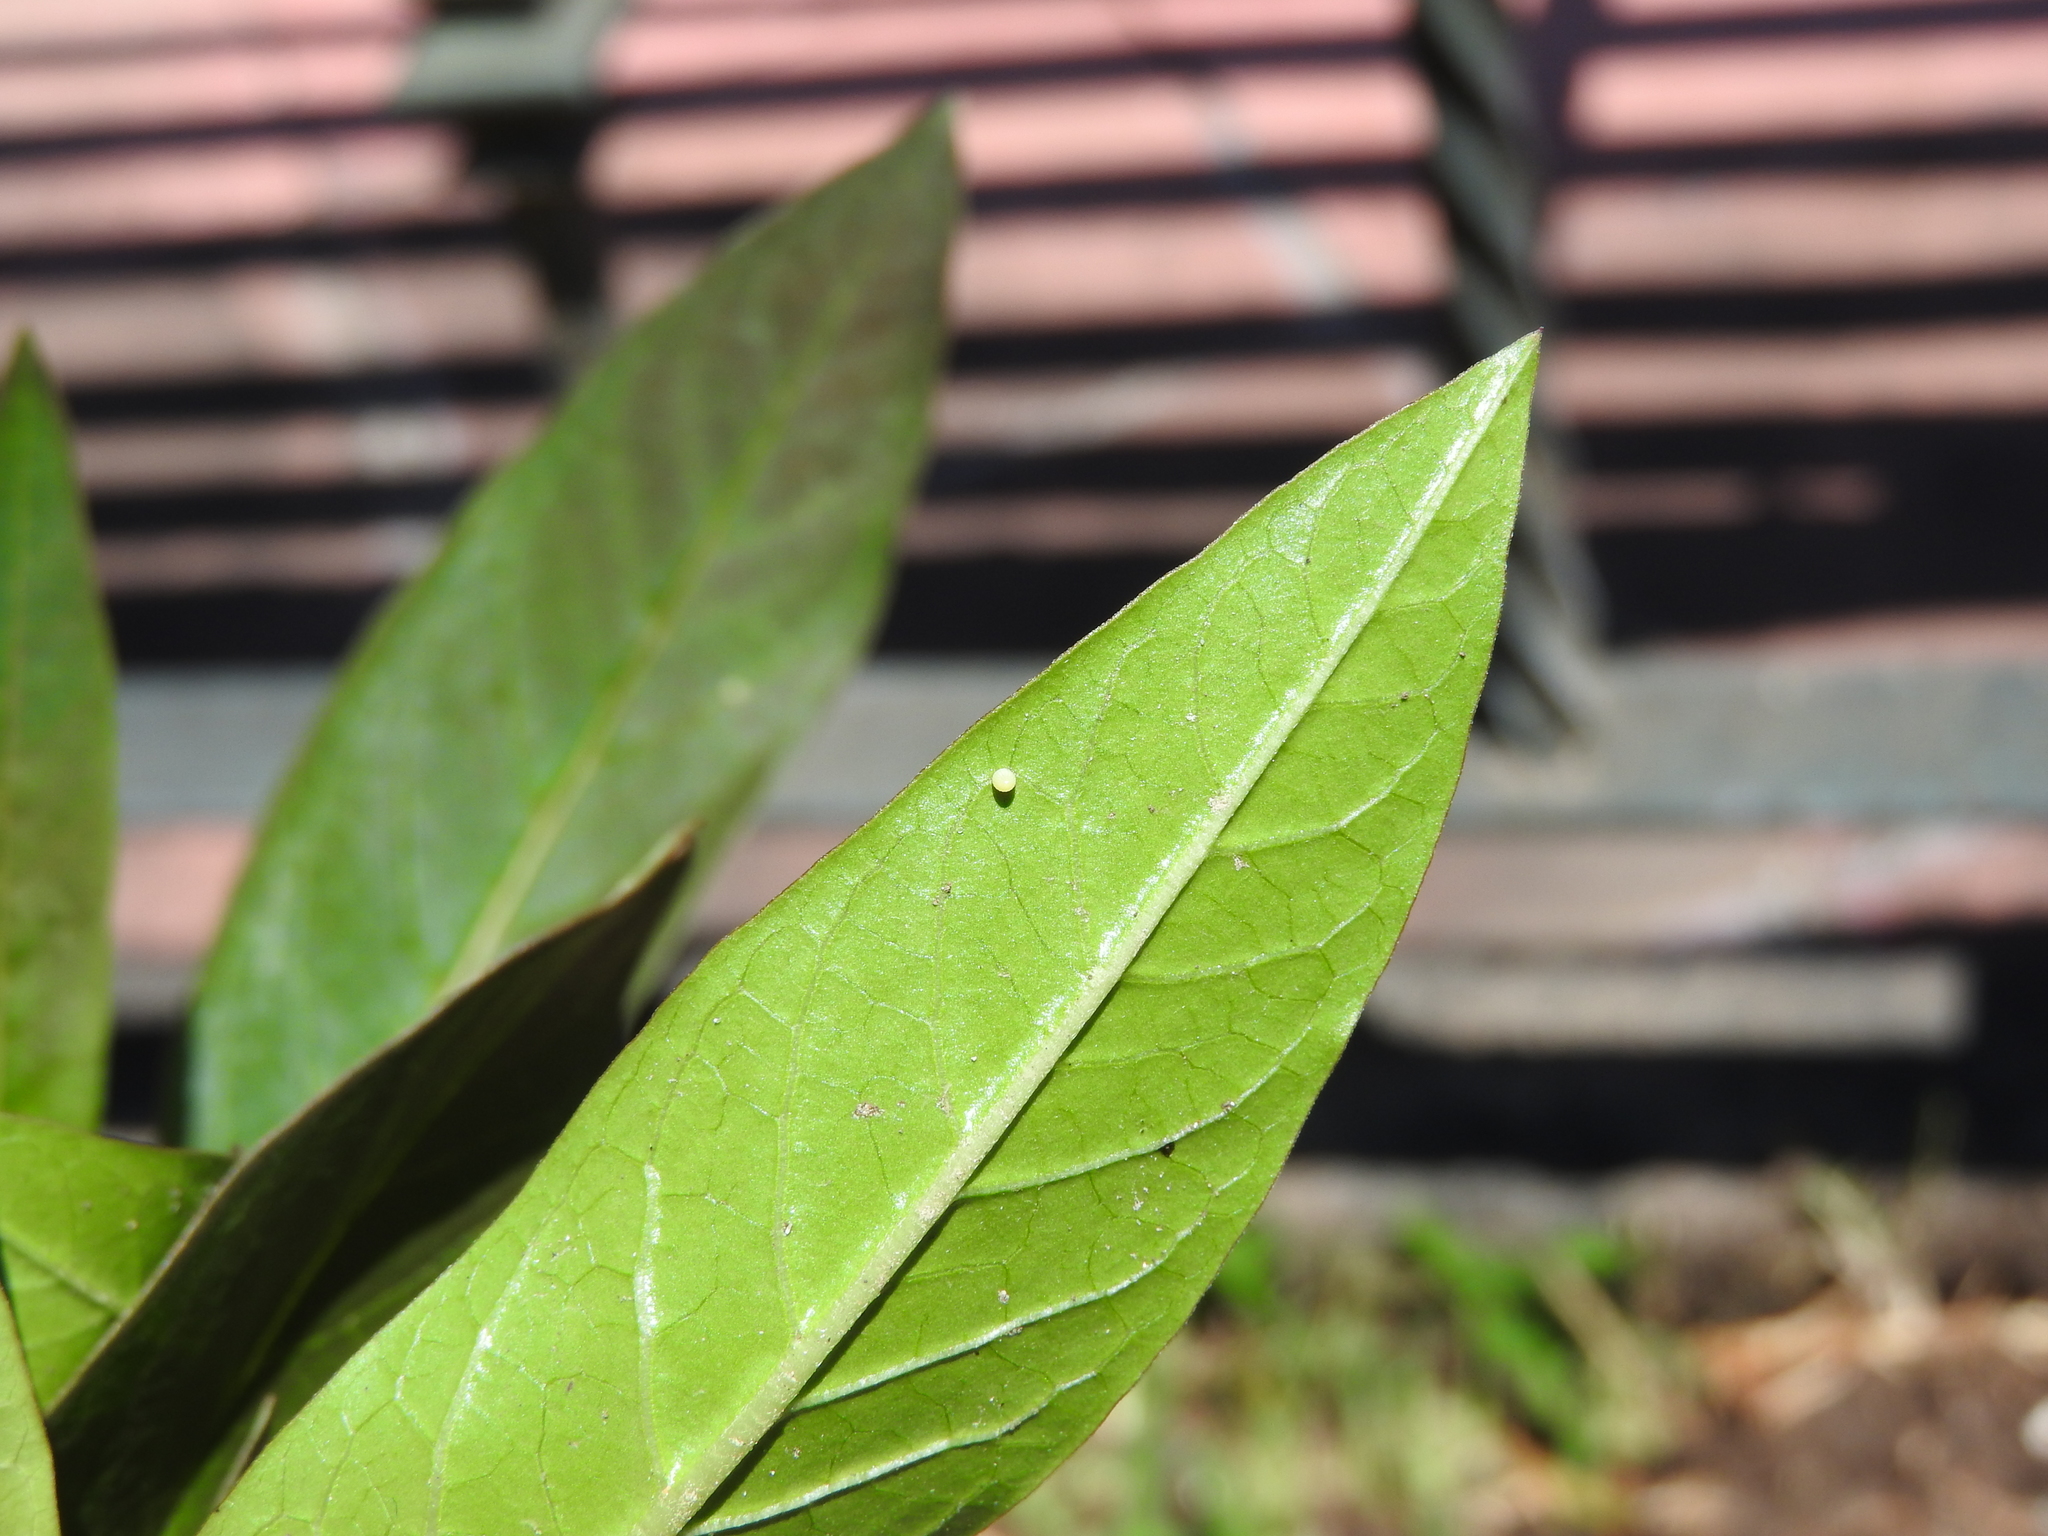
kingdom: Animalia
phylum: Arthropoda
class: Insecta
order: Lepidoptera
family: Nymphalidae
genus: Danaus
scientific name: Danaus plexippus
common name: Monarch
